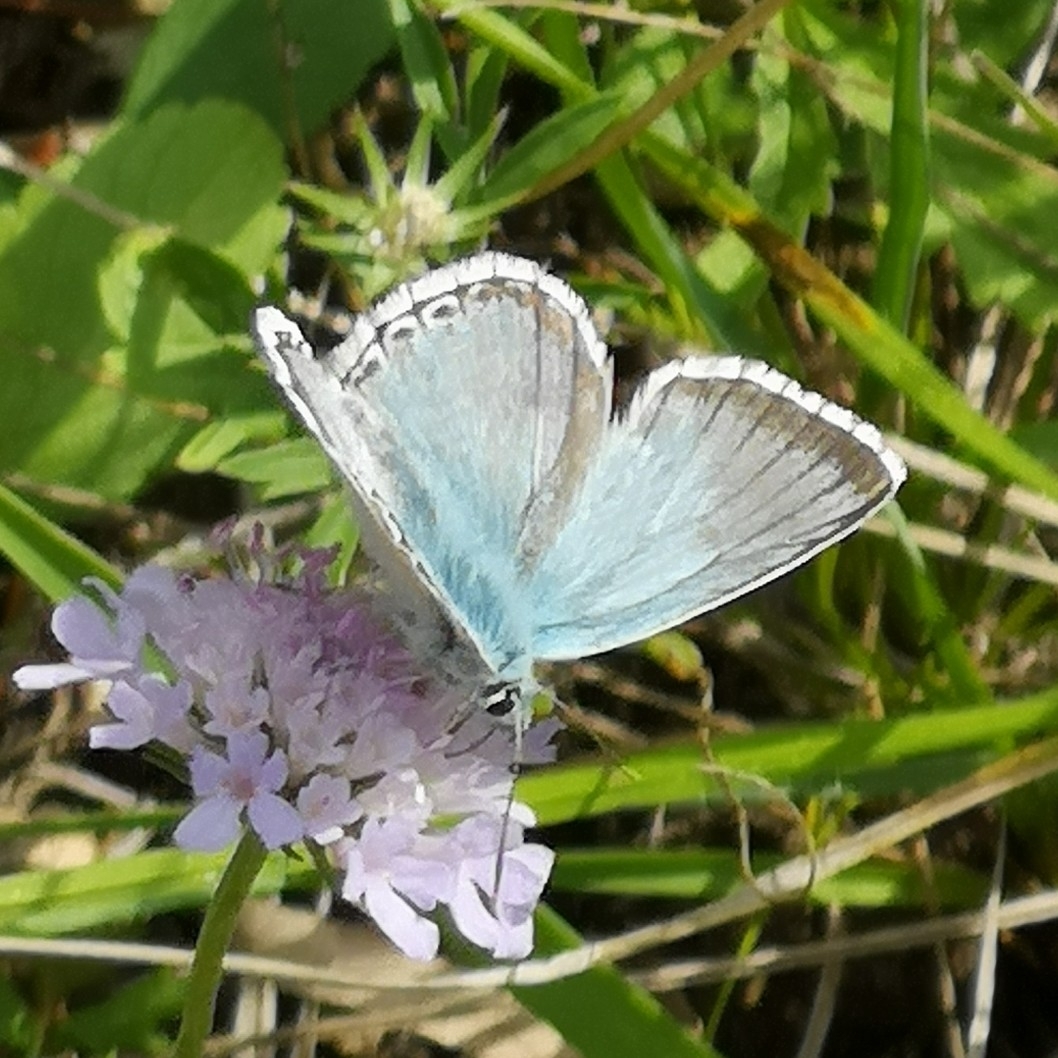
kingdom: Animalia
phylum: Arthropoda
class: Insecta
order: Lepidoptera
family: Lycaenidae
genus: Lysandra
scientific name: Lysandra coridon
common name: Chalkhill blue
